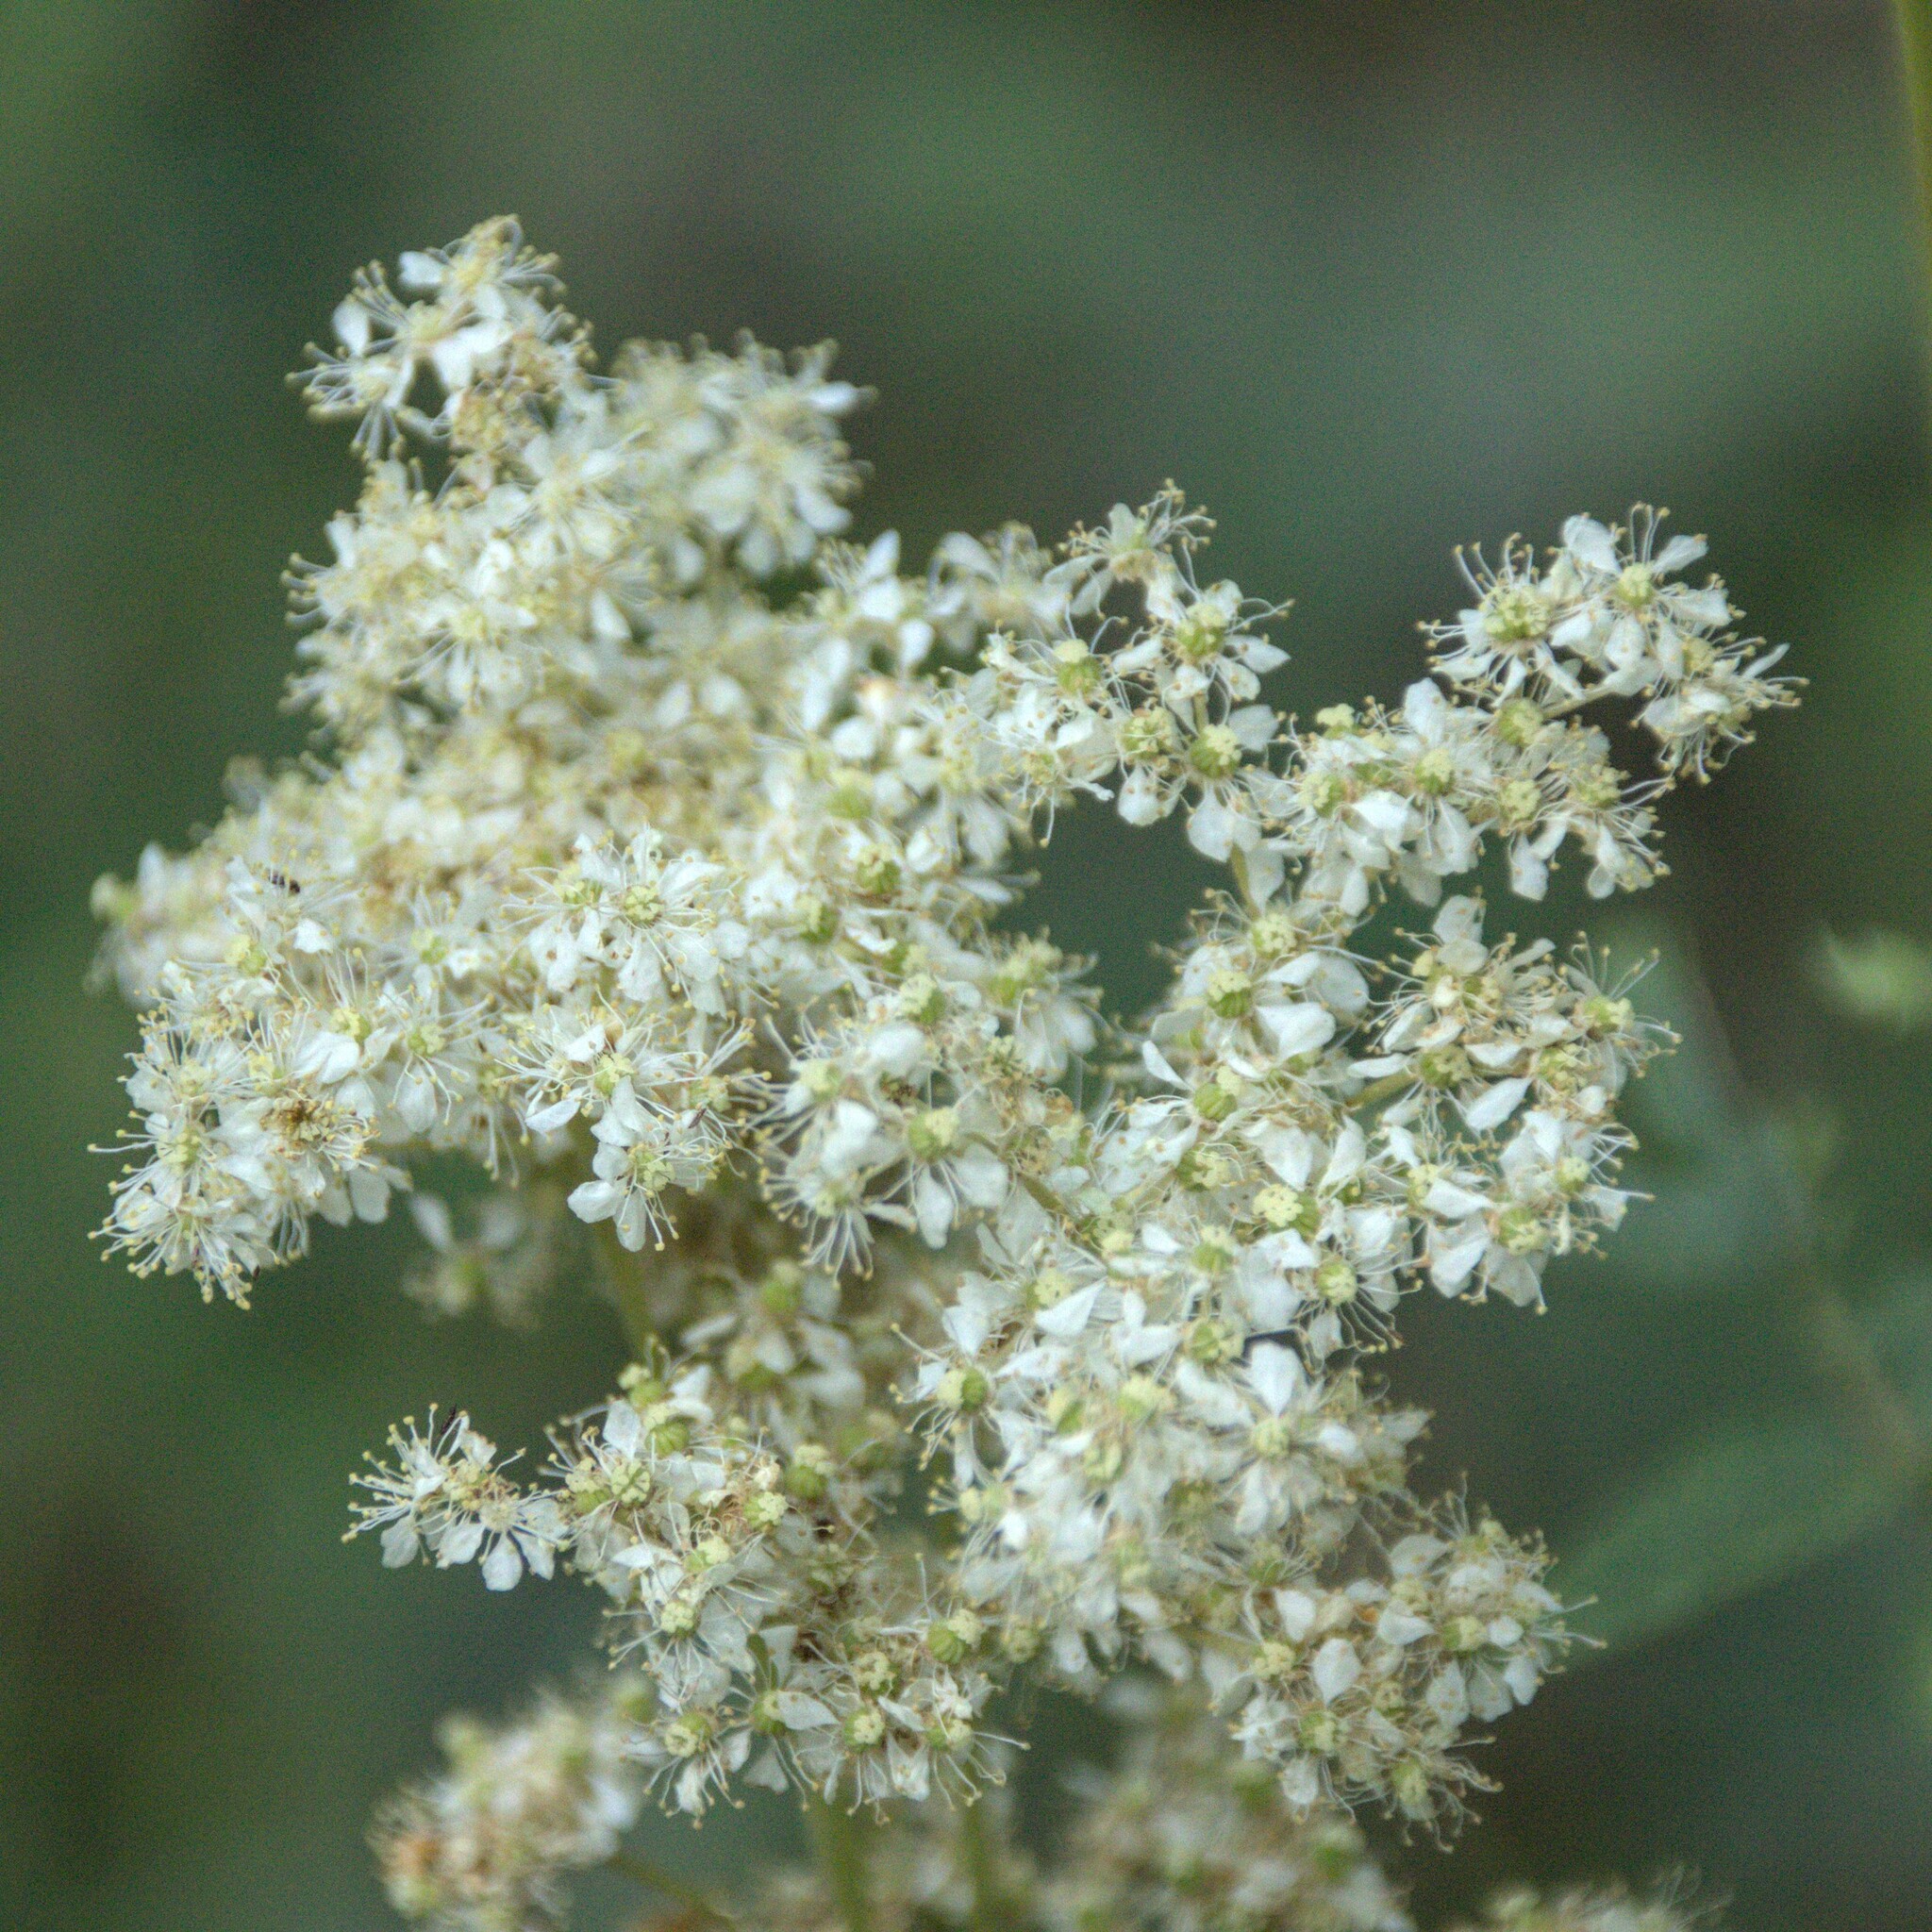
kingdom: Plantae
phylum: Tracheophyta
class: Magnoliopsida
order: Rosales
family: Rosaceae
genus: Filipendula
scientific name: Filipendula ulmaria
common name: Meadowsweet
